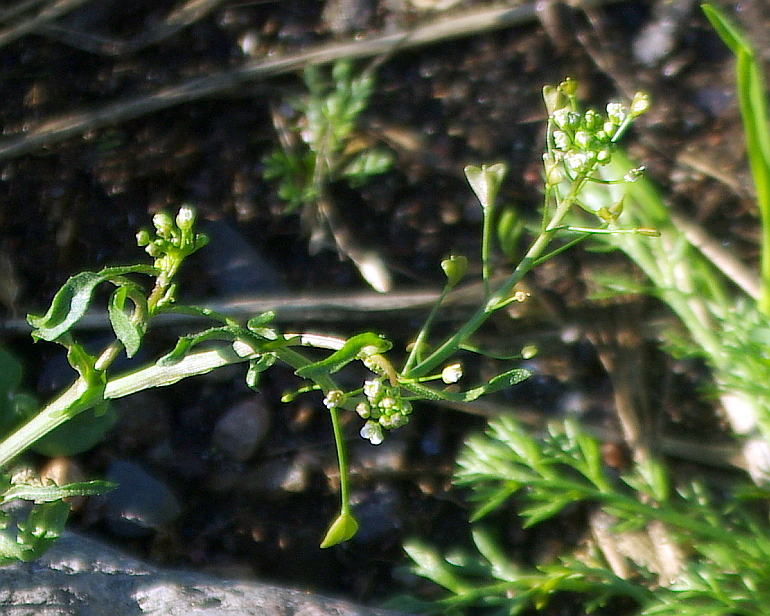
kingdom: Plantae
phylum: Tracheophyta
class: Magnoliopsida
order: Brassicales
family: Brassicaceae
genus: Capsella
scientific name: Capsella bursa-pastoris
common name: Shepherd's purse
